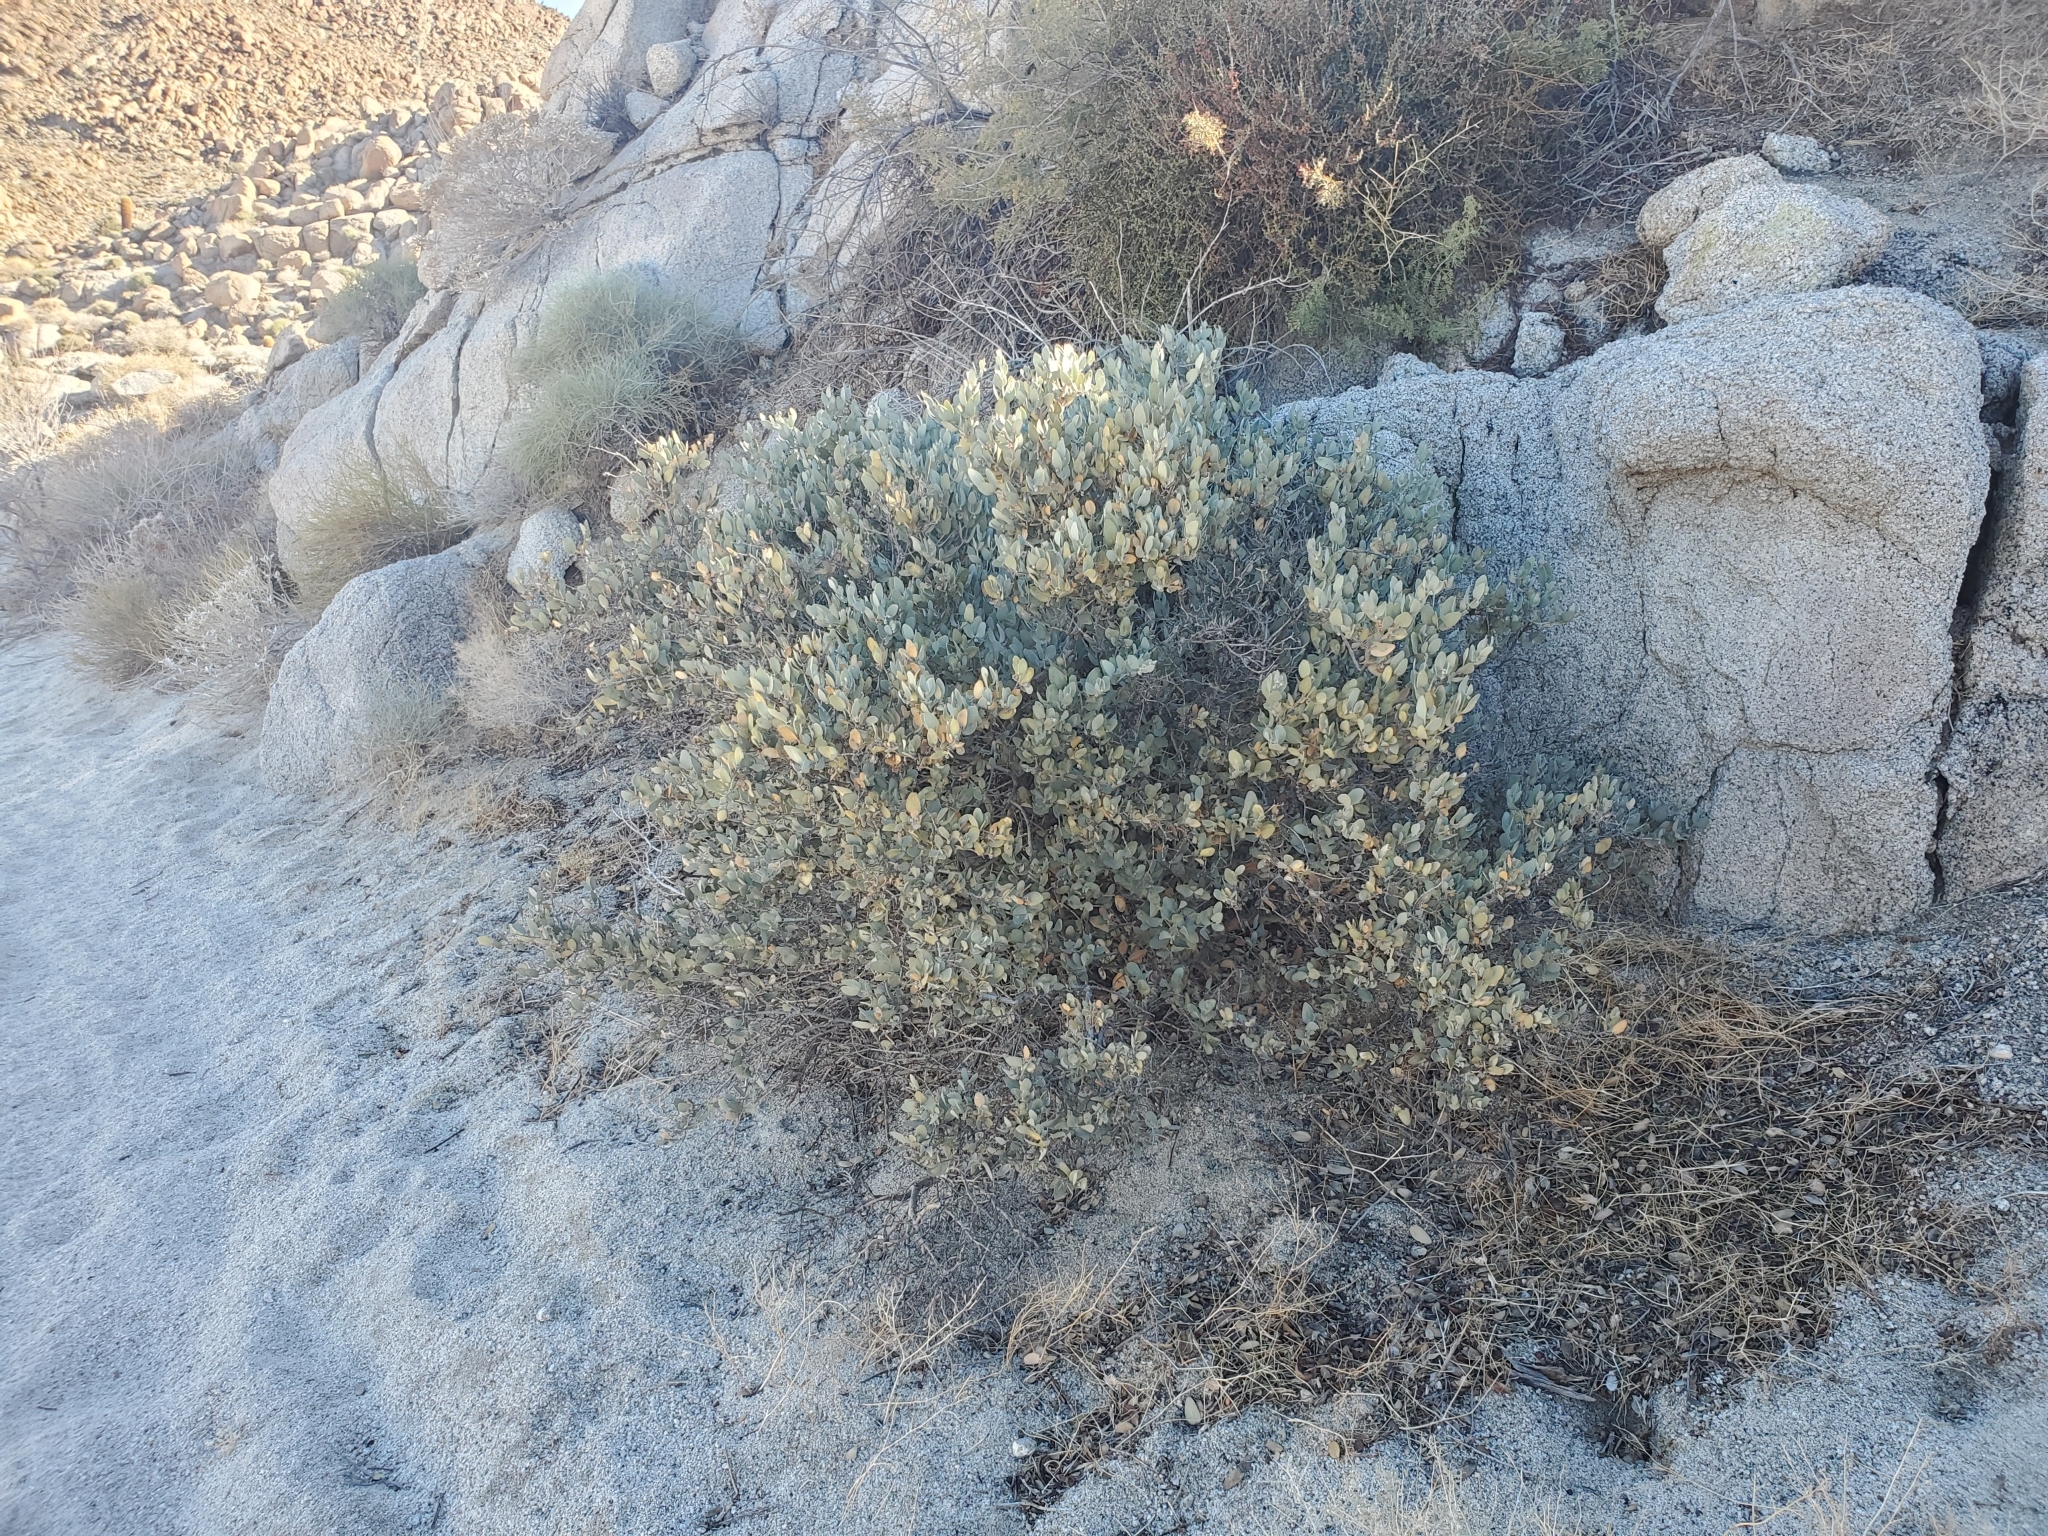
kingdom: Plantae
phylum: Tracheophyta
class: Magnoliopsida
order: Caryophyllales
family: Simmondsiaceae
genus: Simmondsia
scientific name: Simmondsia chinensis
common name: Jojoba
